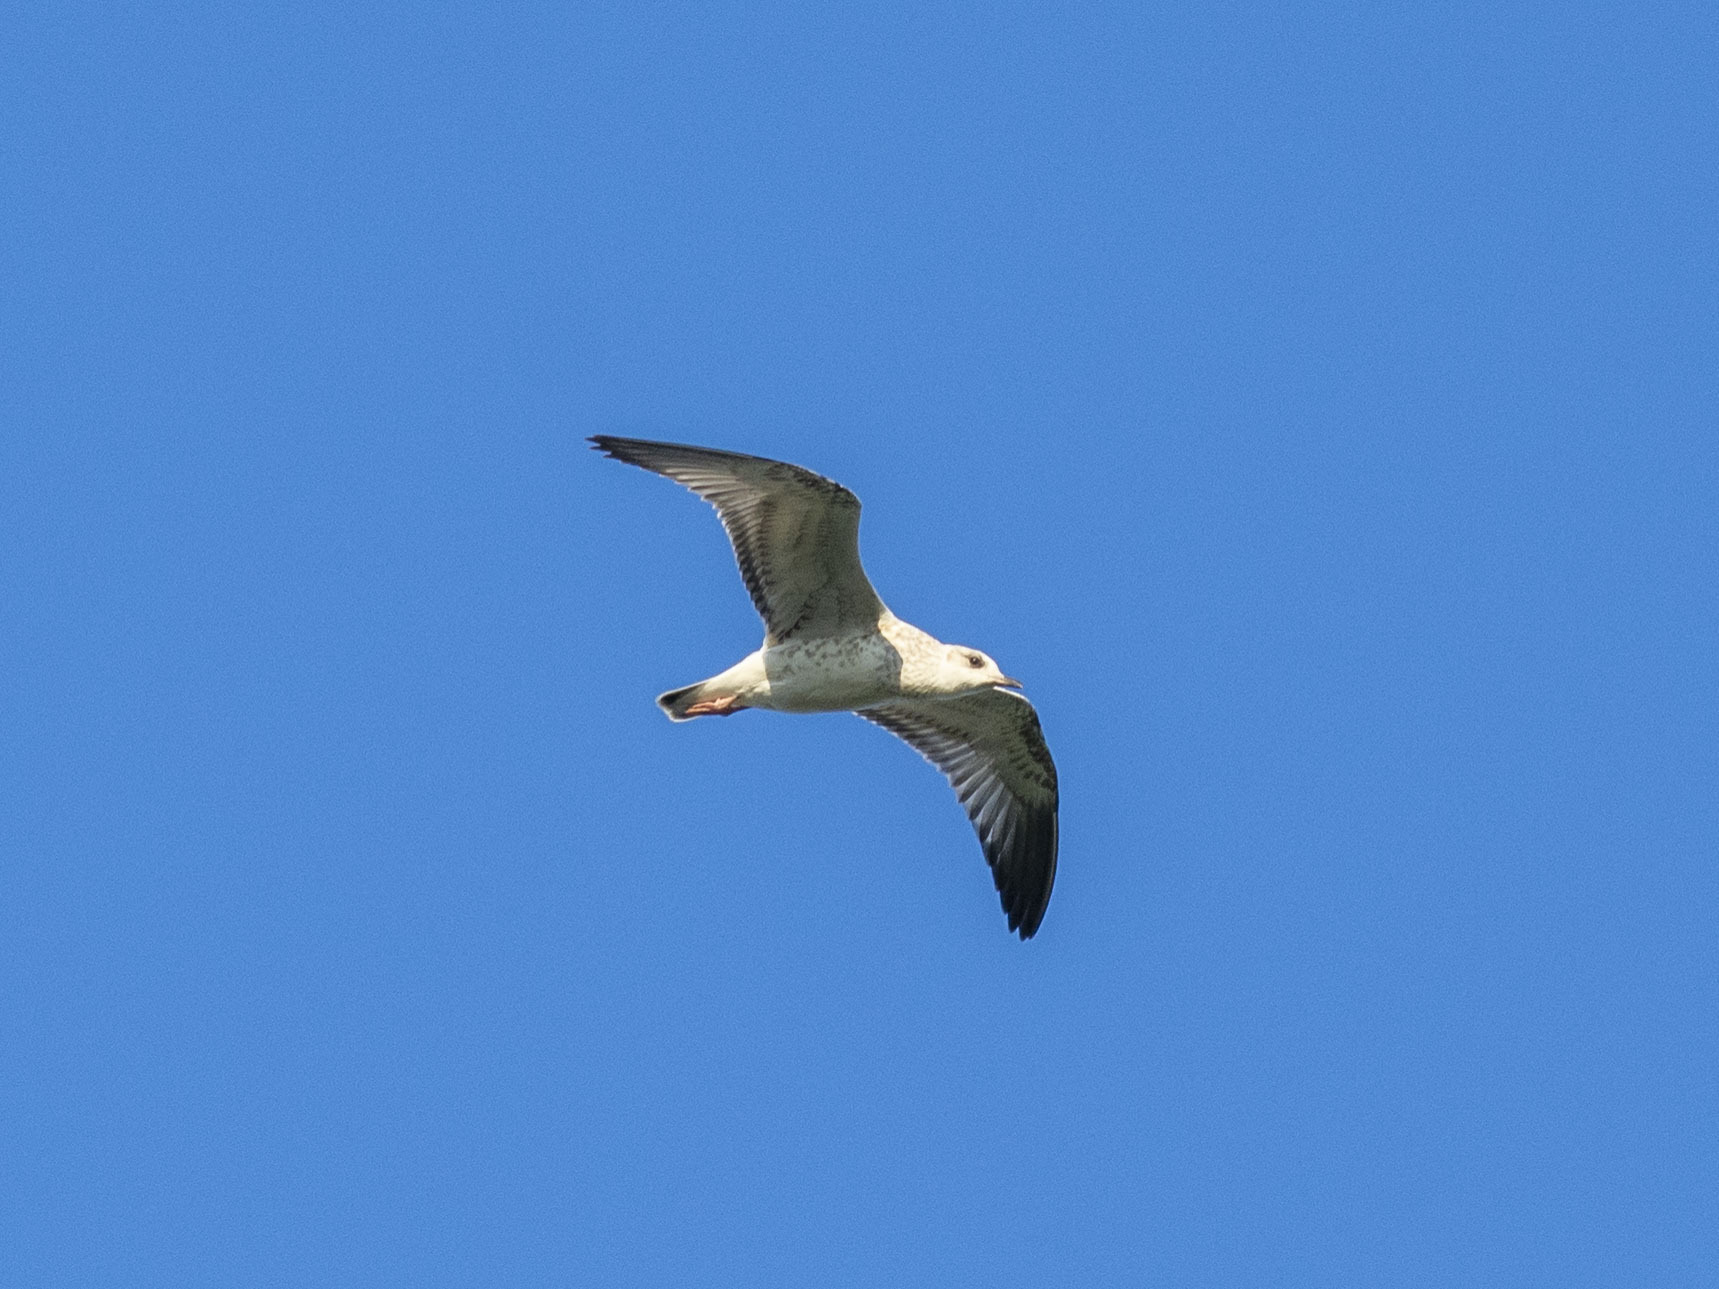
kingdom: Animalia
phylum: Chordata
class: Aves
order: Charadriiformes
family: Laridae
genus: Larus
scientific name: Larus canus
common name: Mew gull
